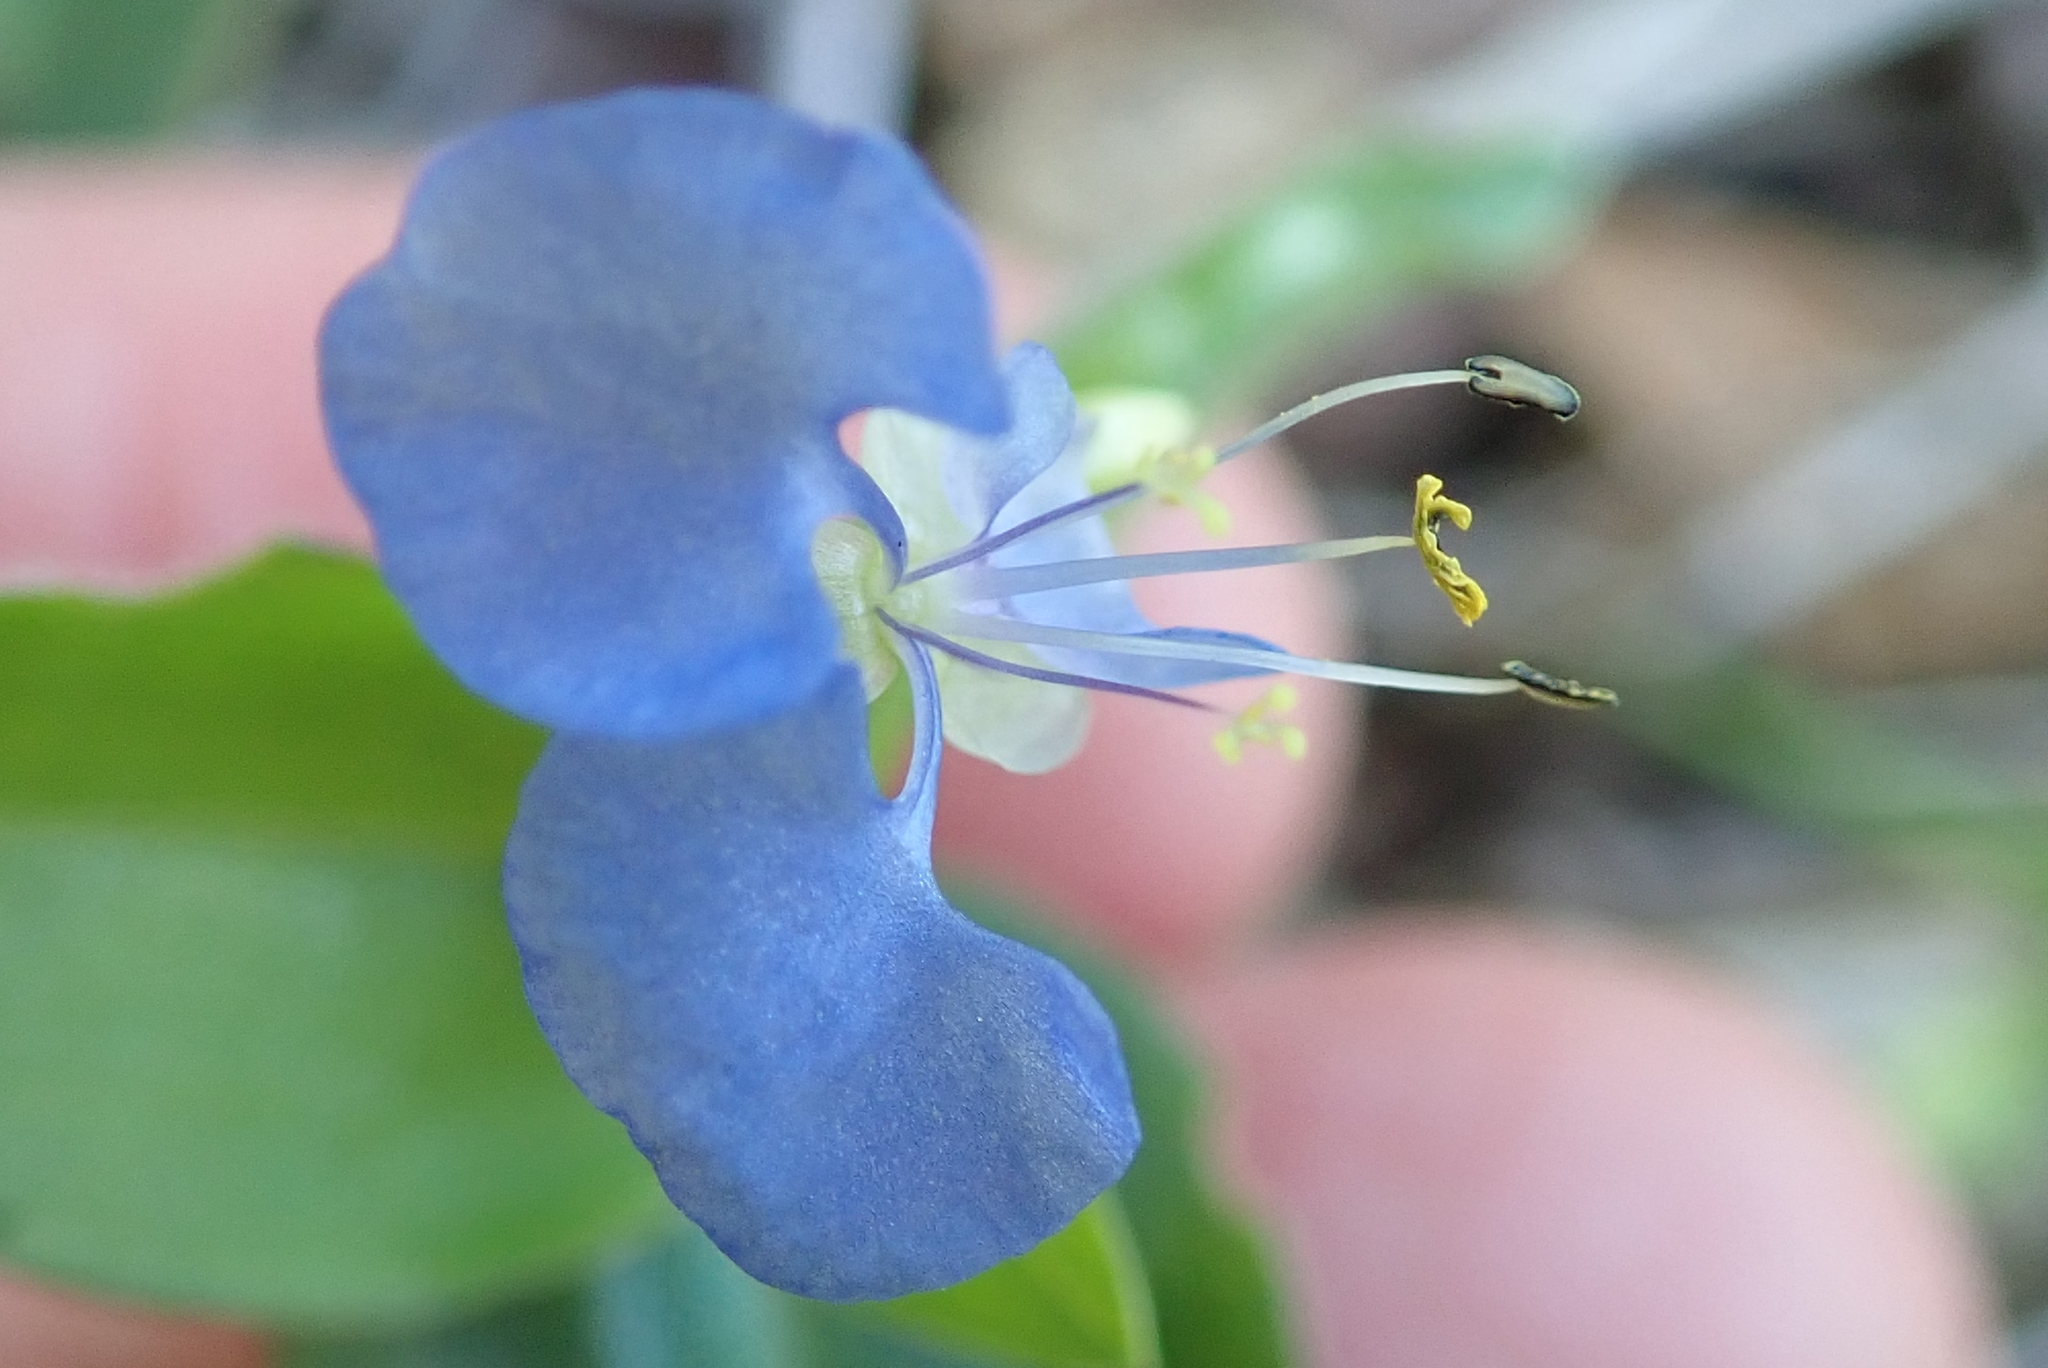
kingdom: Plantae
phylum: Tracheophyta
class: Liliopsida
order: Commelinales
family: Commelinaceae
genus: Commelina
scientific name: Commelina benghalensis
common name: Jio
